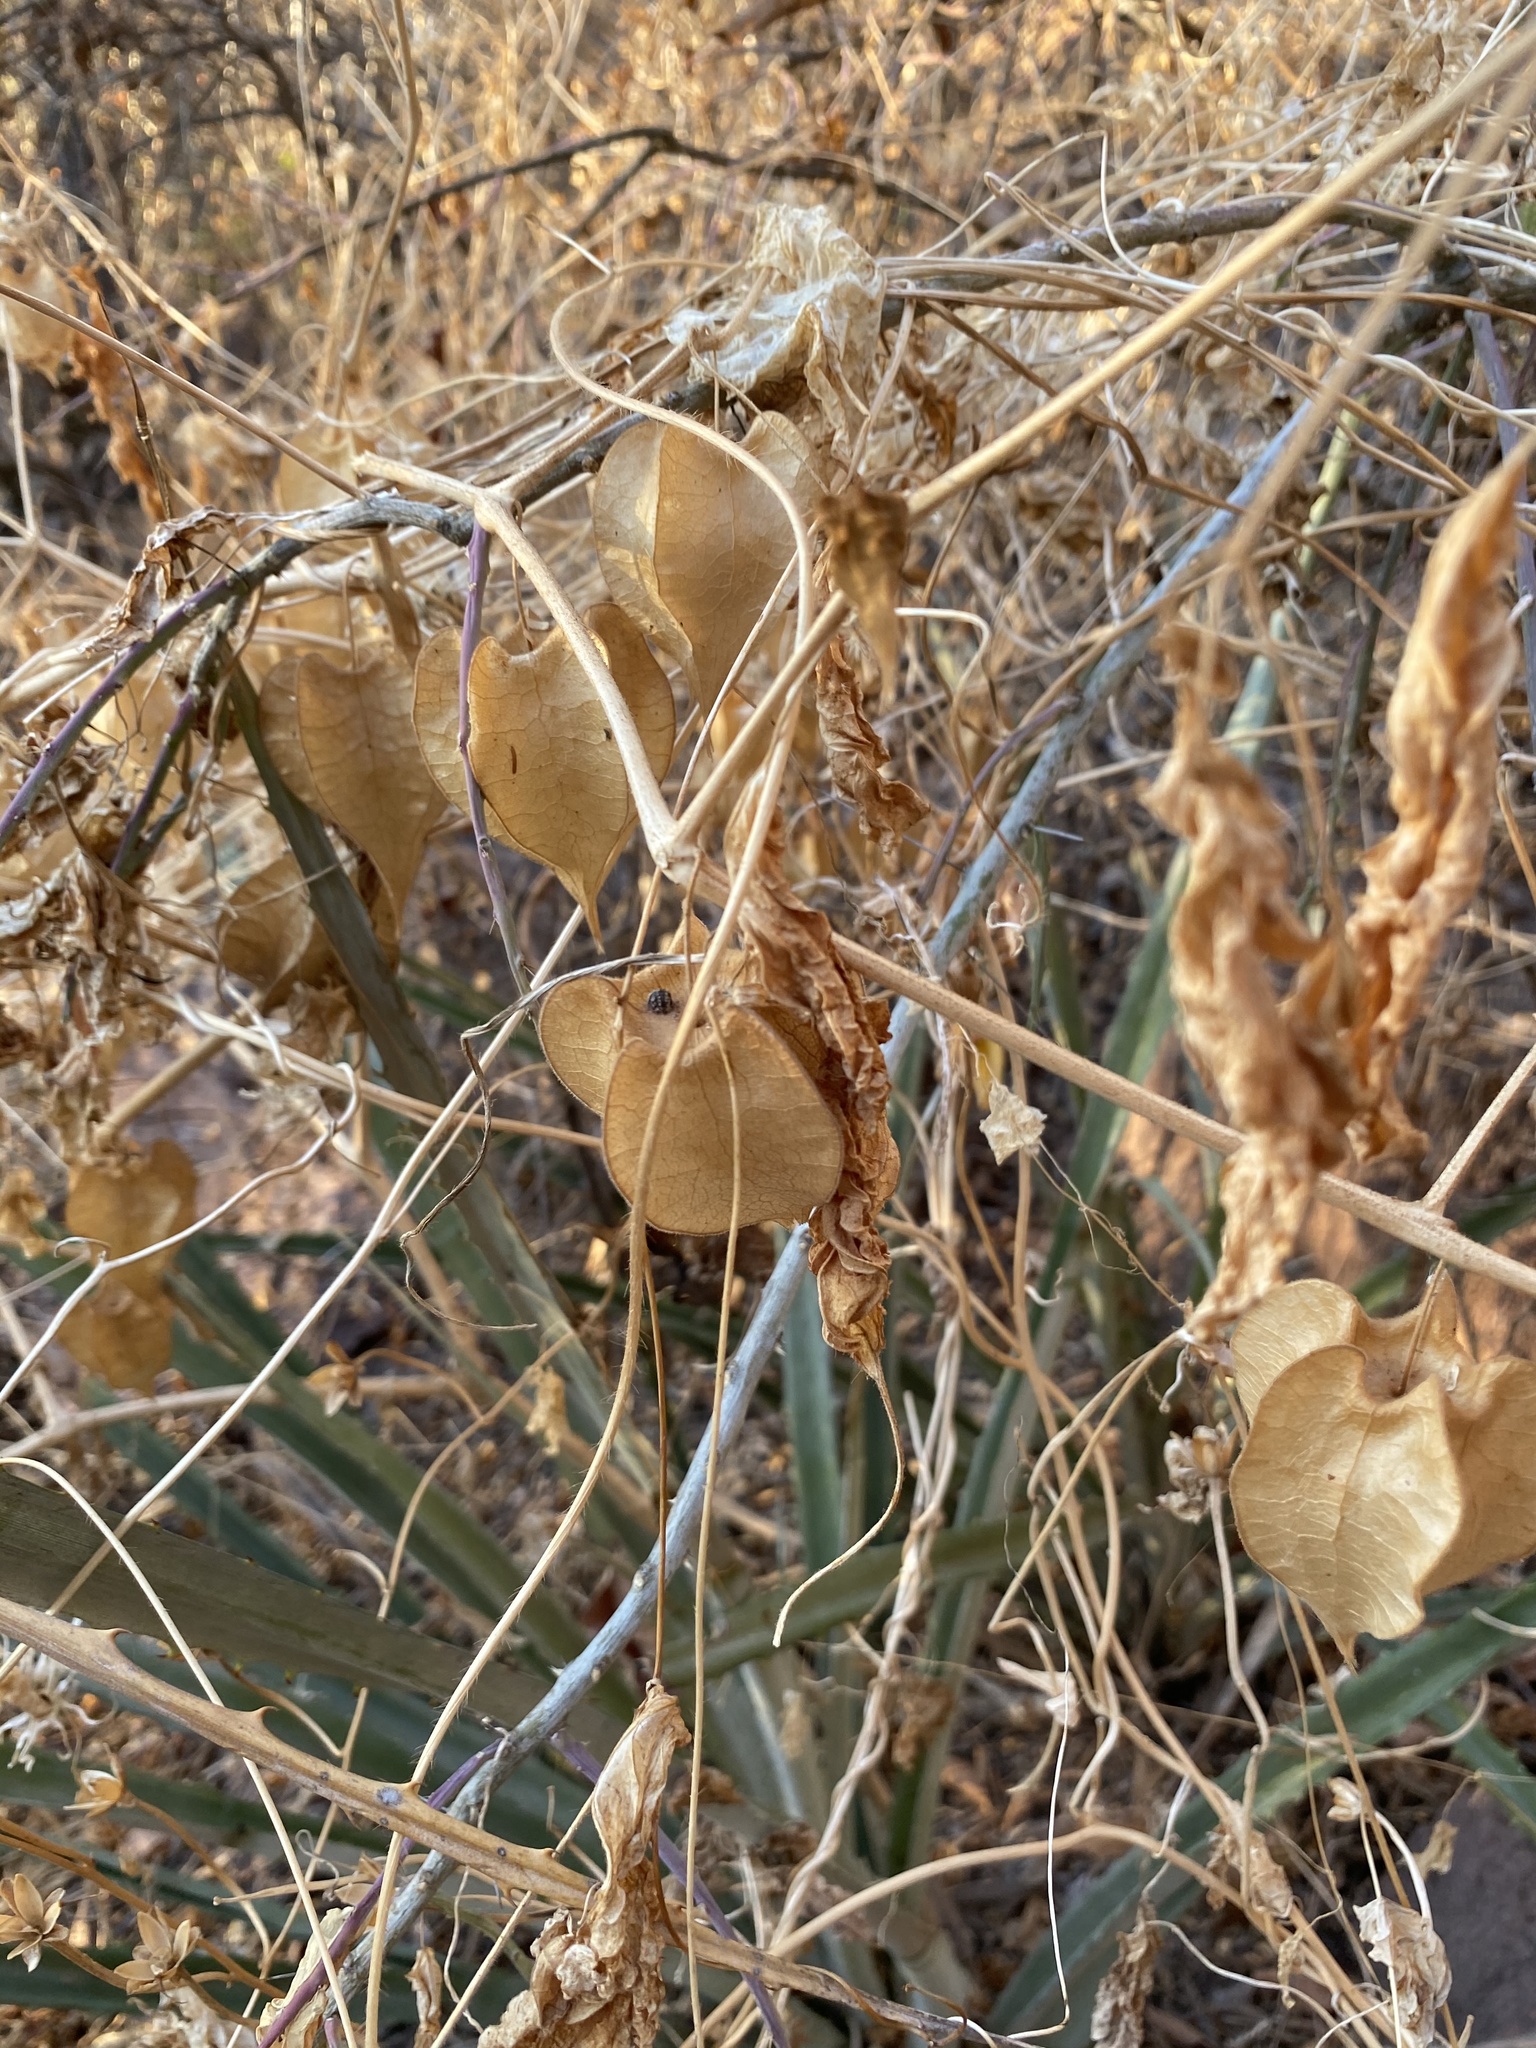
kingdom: Plantae
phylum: Tracheophyta
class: Magnoliopsida
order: Solanales
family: Solanaceae
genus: Physalis
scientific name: Physalis nicandroides
